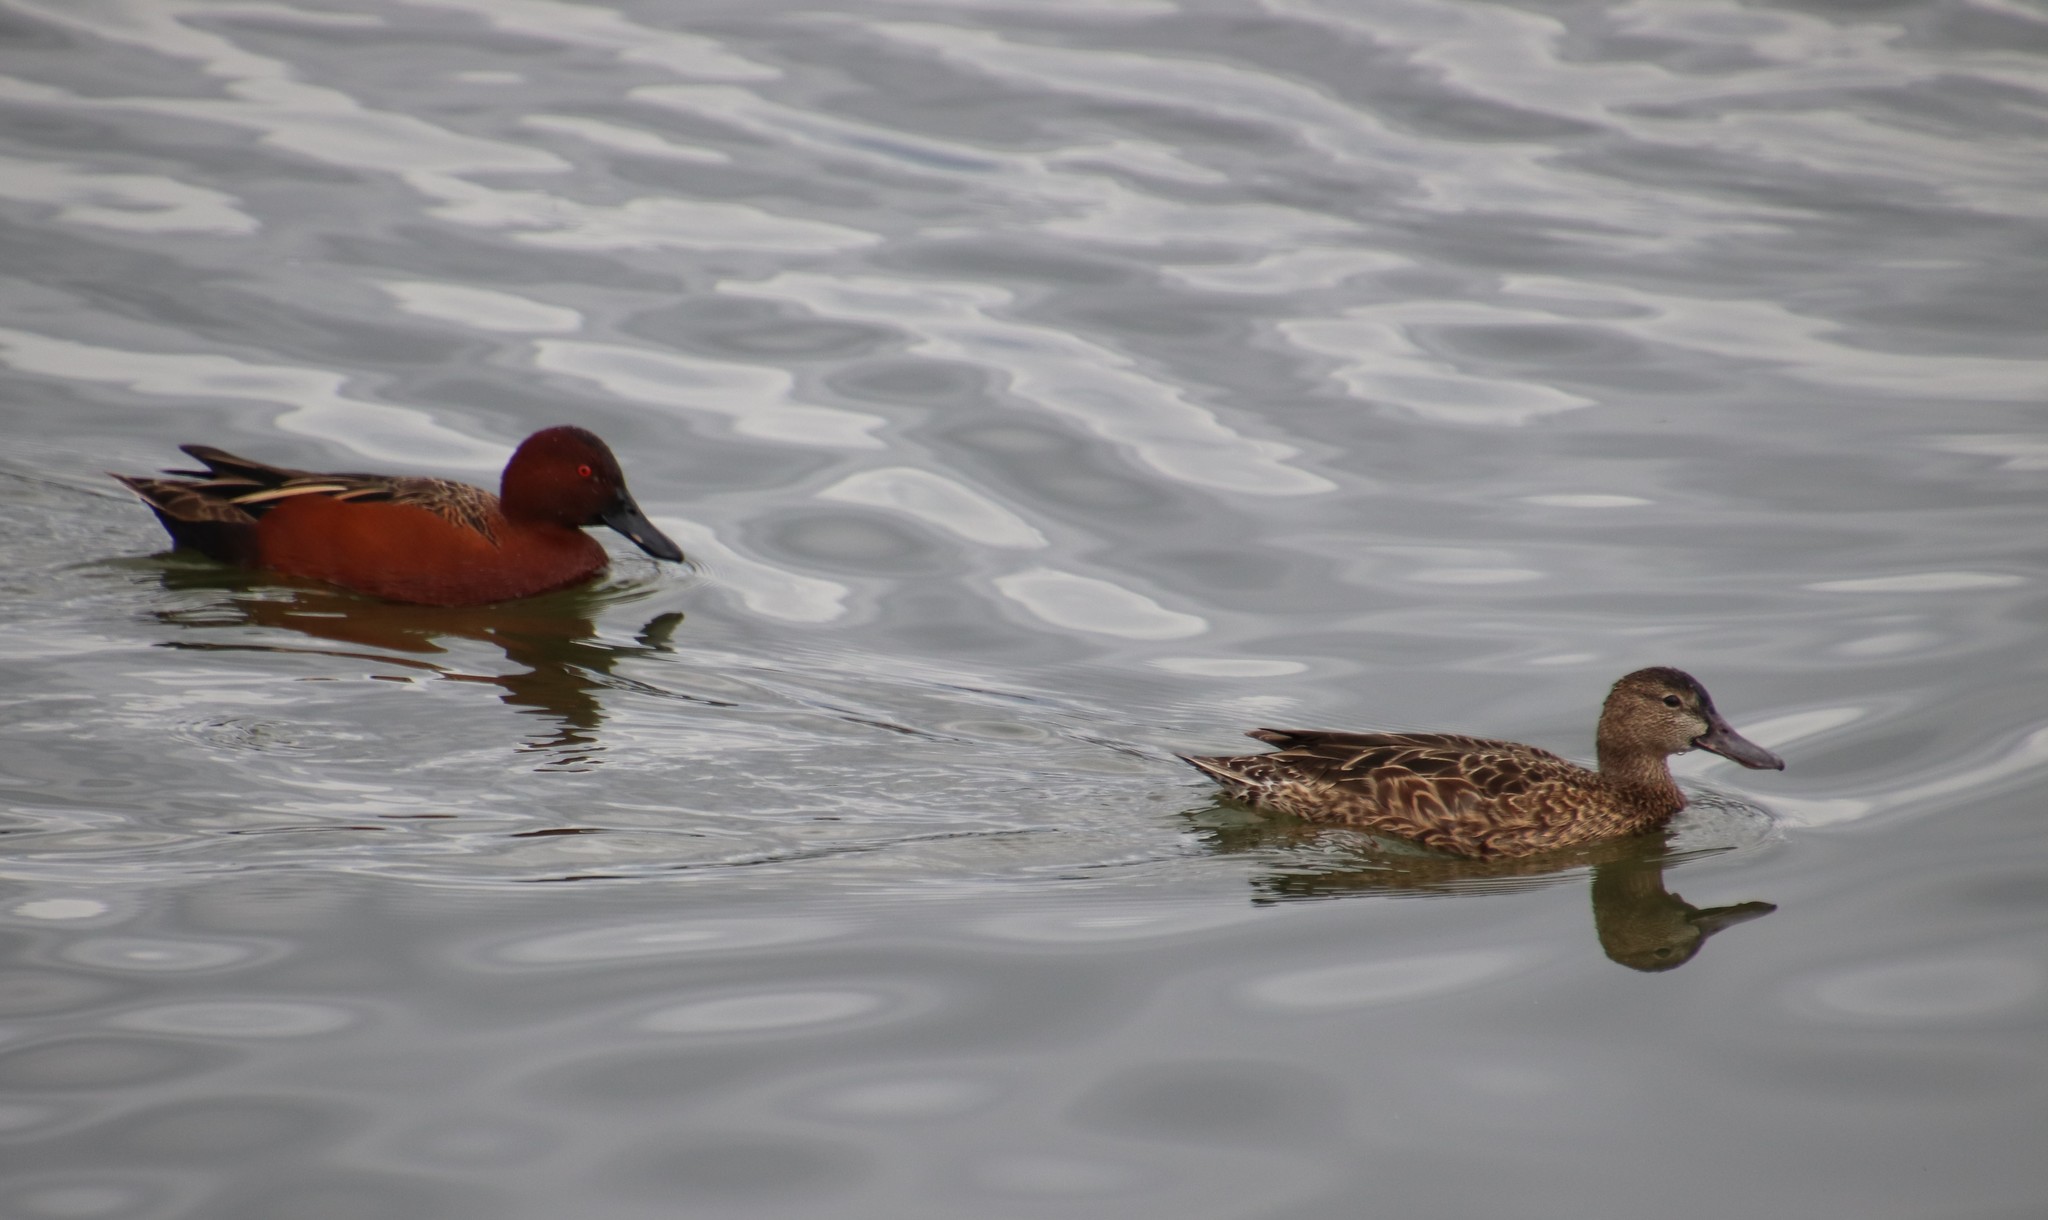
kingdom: Animalia
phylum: Chordata
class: Aves
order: Anseriformes
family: Anatidae
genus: Spatula
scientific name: Spatula cyanoptera
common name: Cinnamon teal
